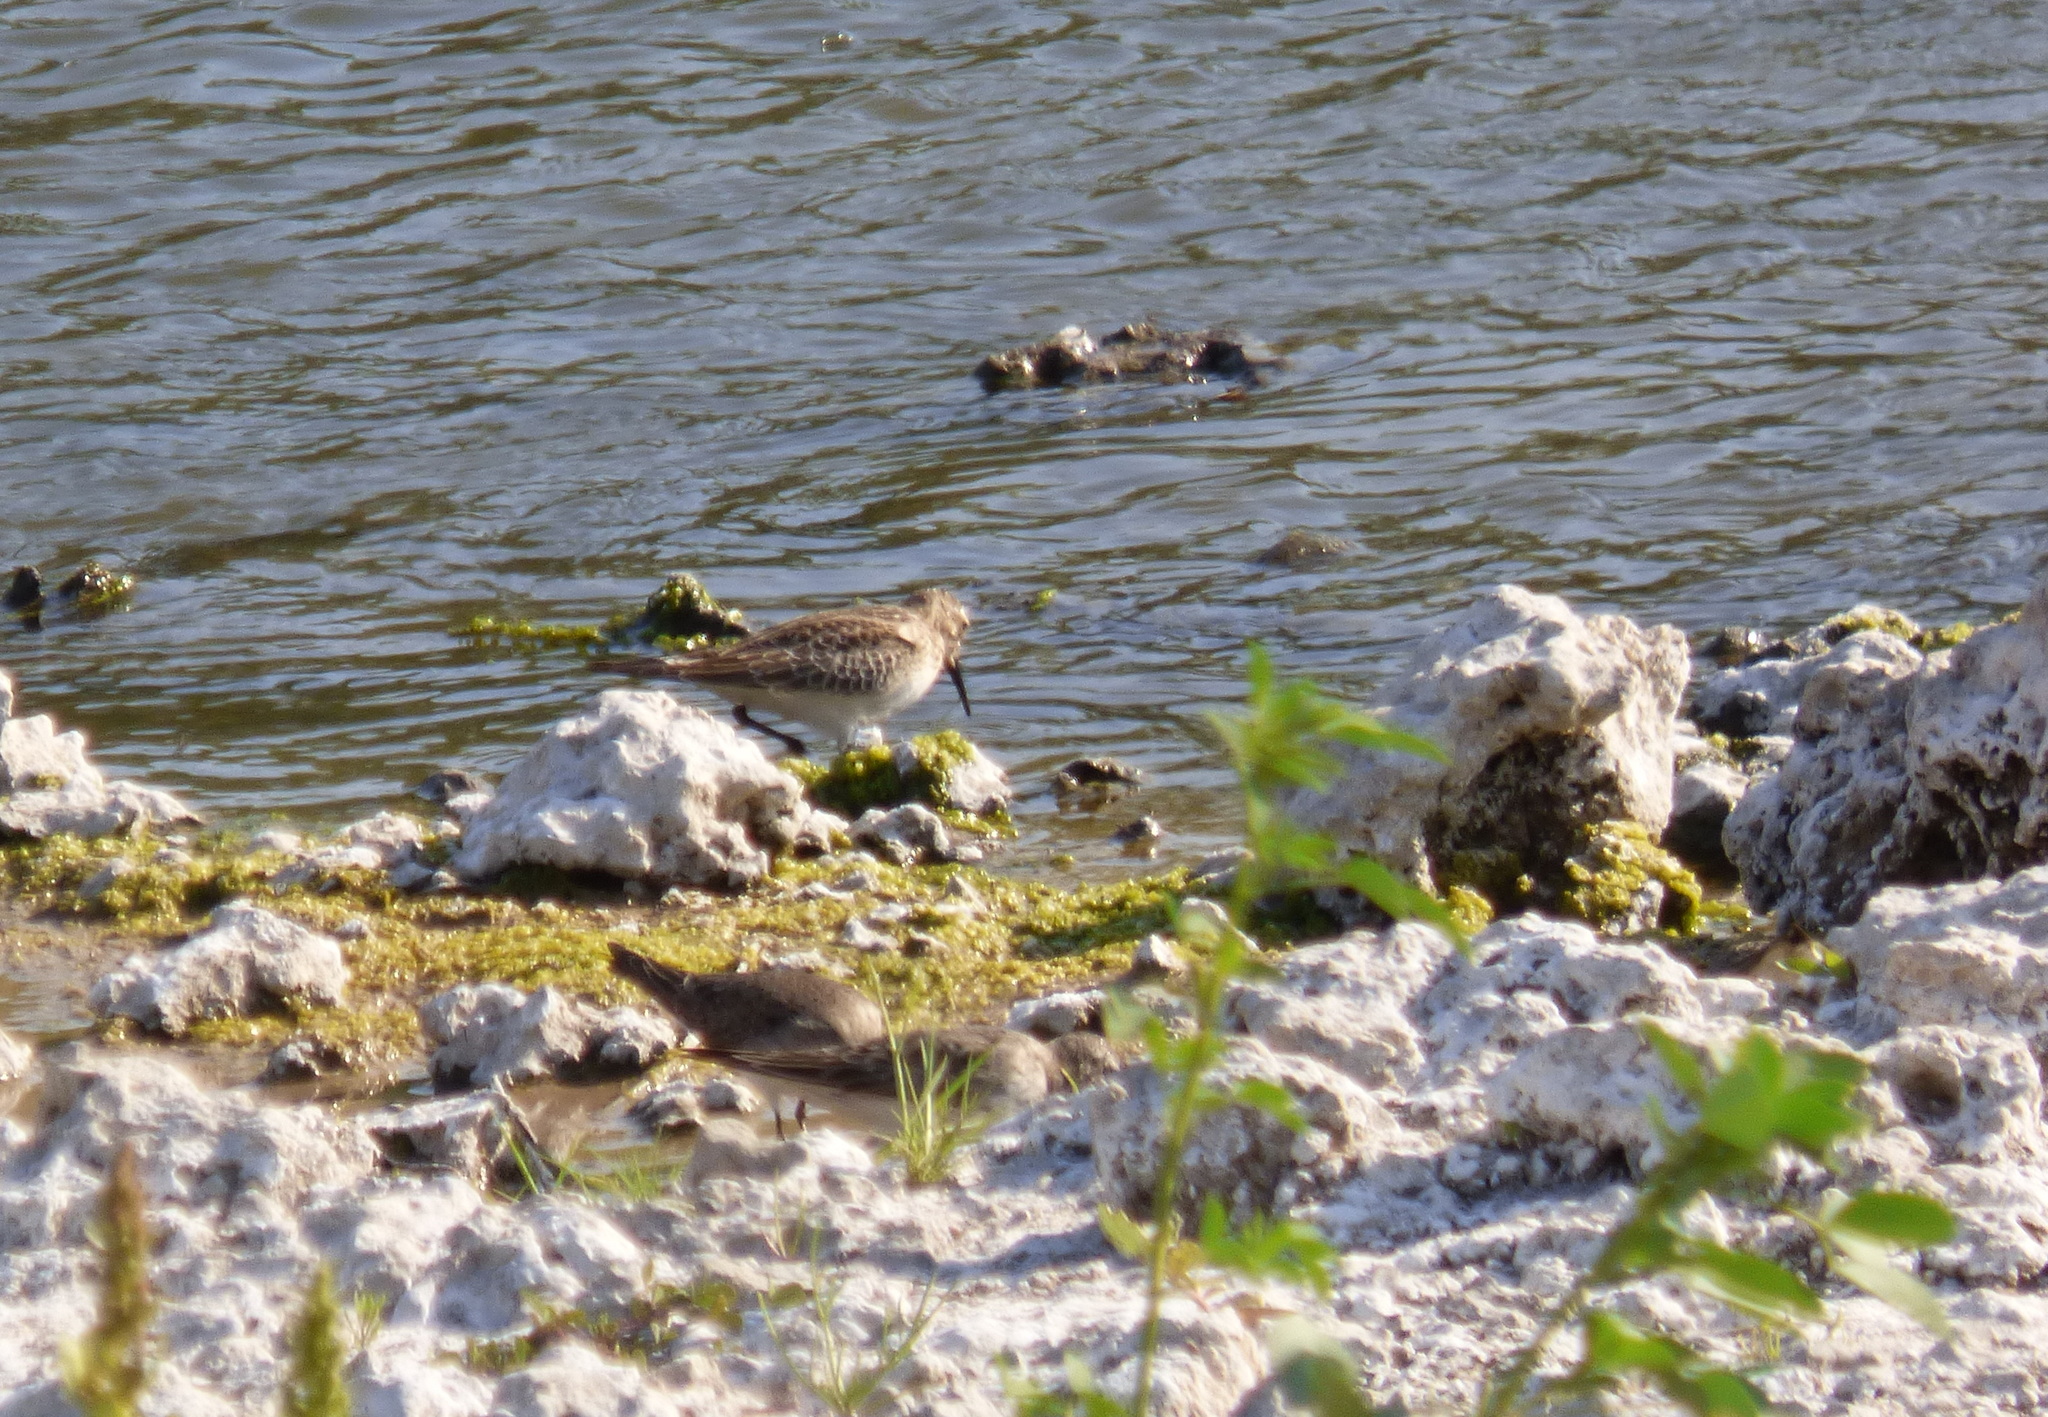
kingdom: Animalia
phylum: Chordata
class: Aves
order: Charadriiformes
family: Scolopacidae
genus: Calidris
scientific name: Calidris bairdii
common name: Baird's sandpiper
